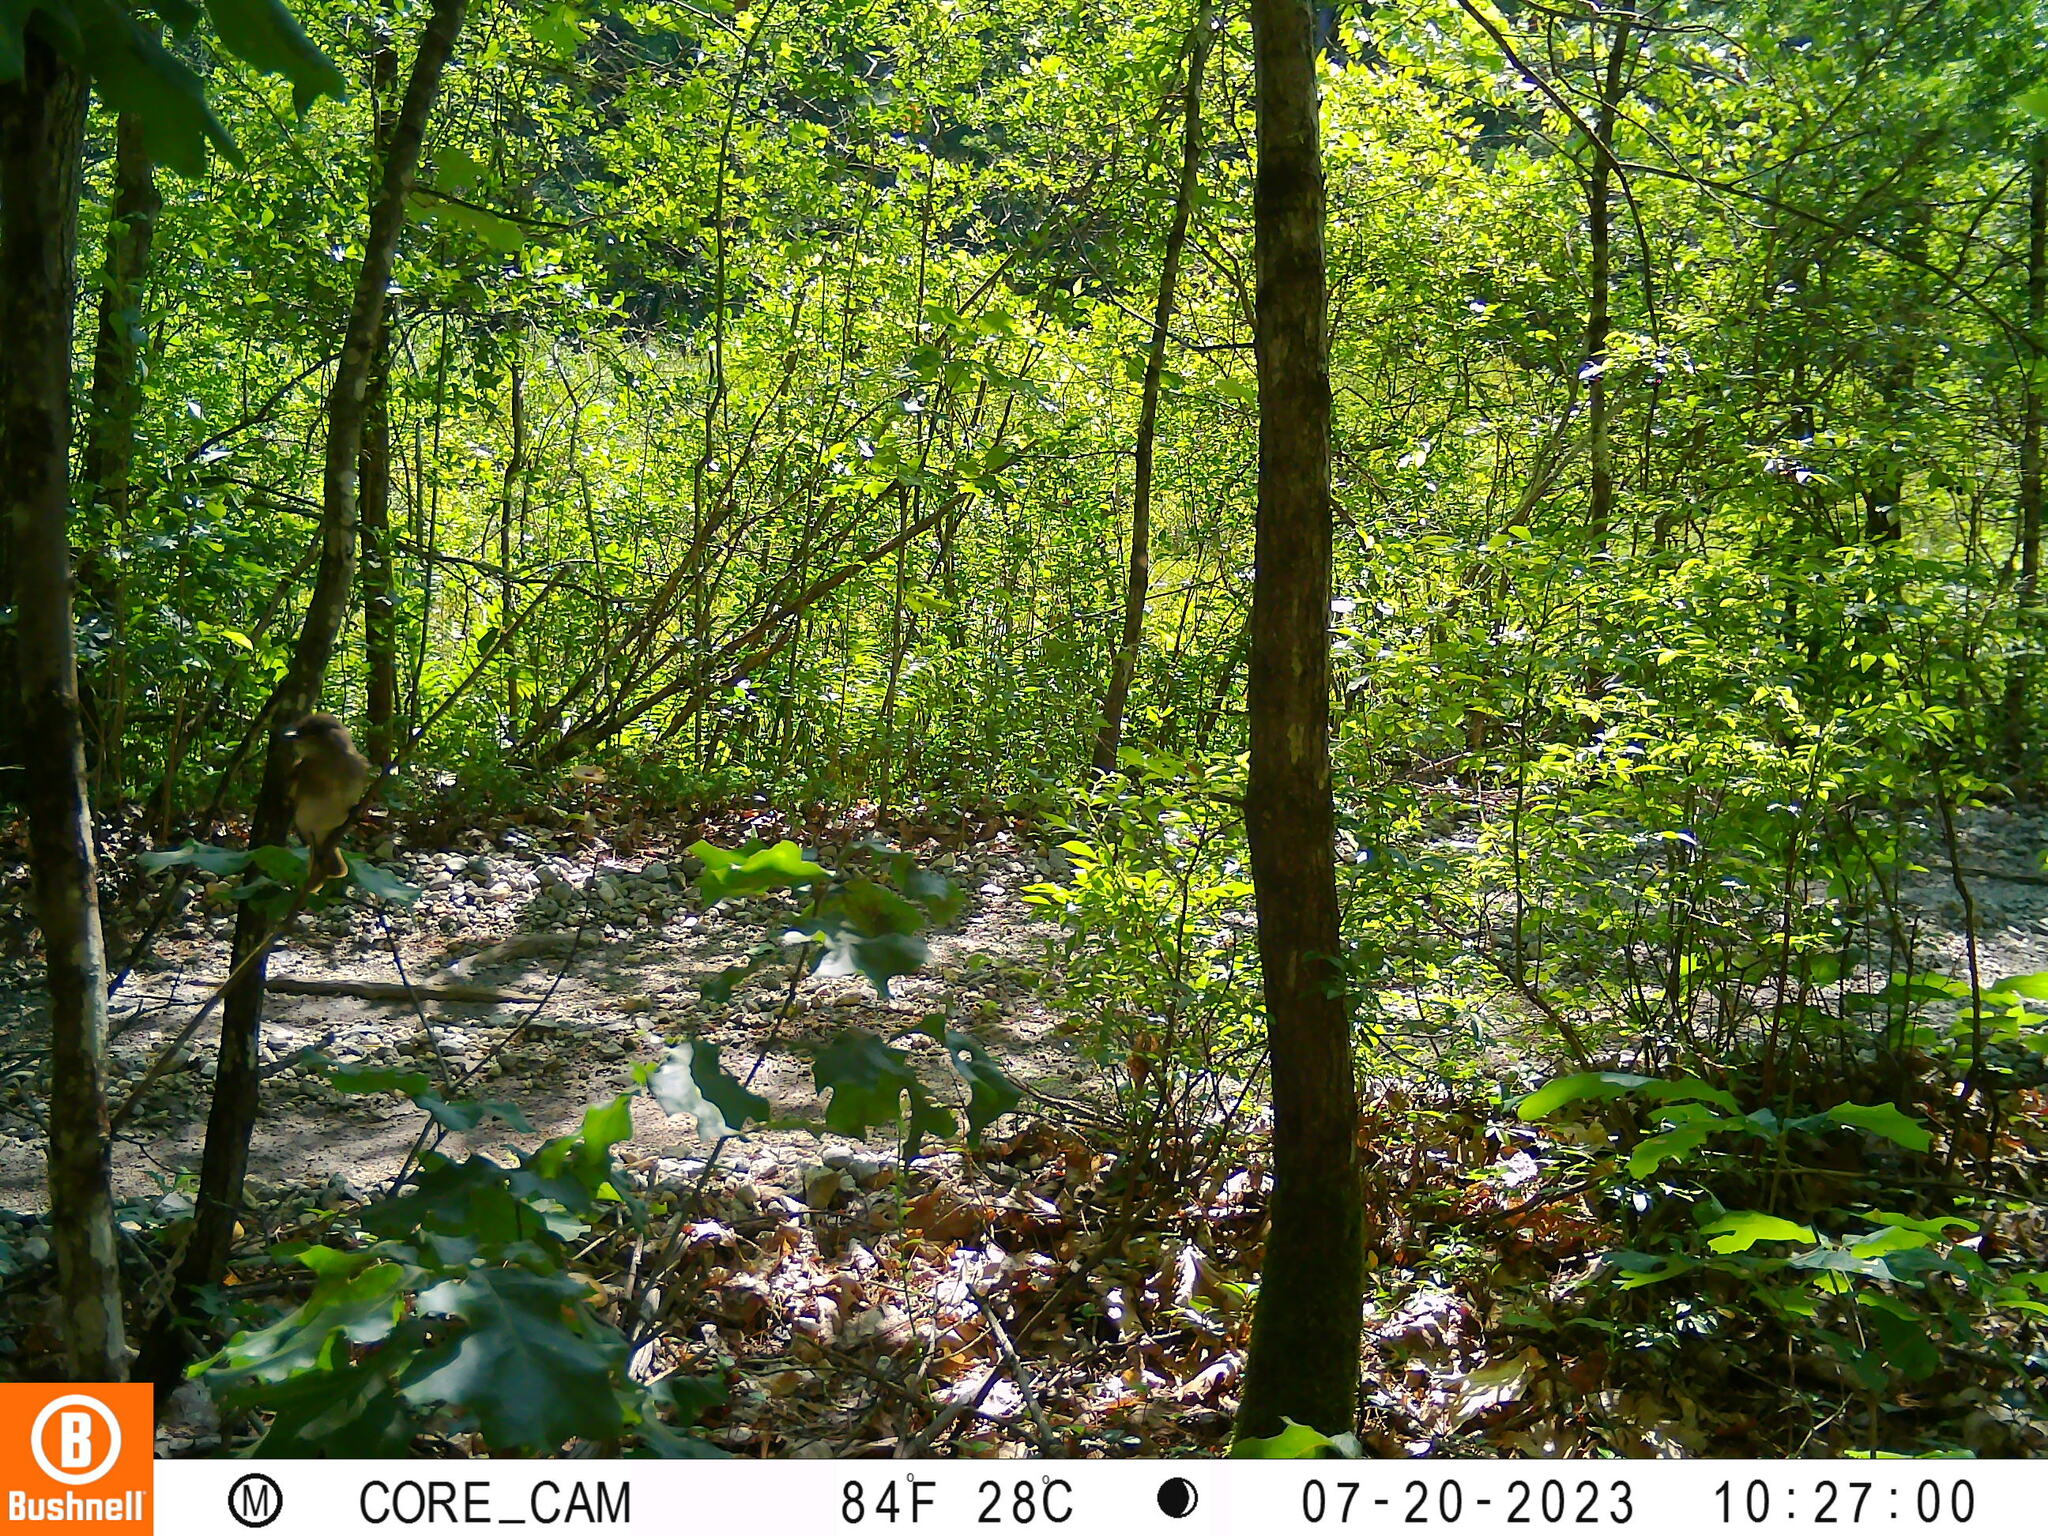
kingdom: Animalia
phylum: Chordata
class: Aves
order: Passeriformes
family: Tyrannidae
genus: Sayornis
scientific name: Sayornis phoebe
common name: Eastern phoebe
